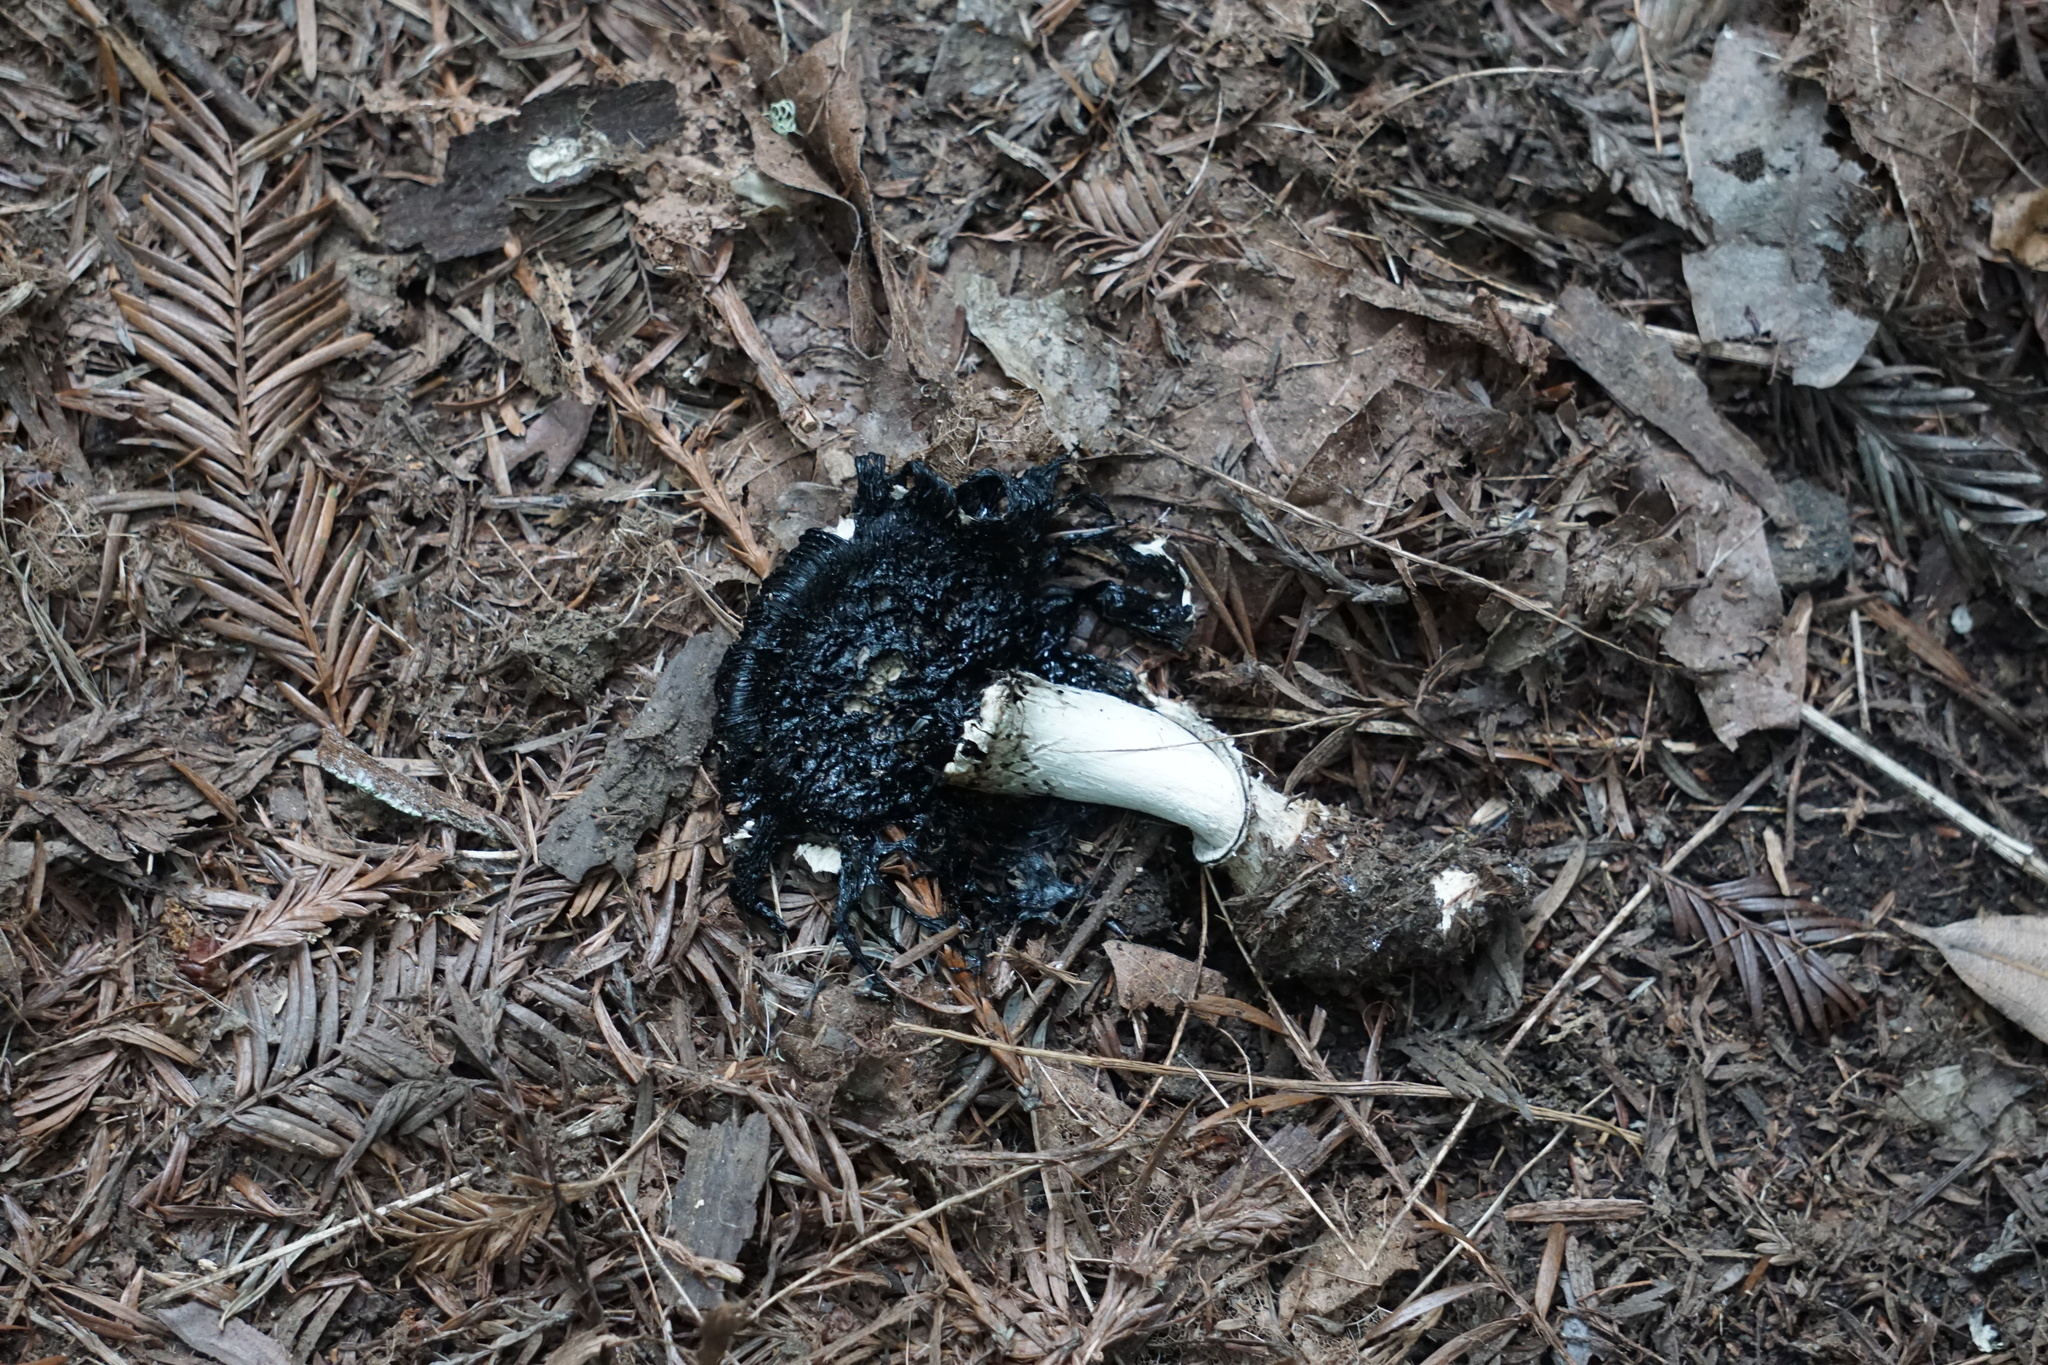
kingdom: Fungi
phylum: Basidiomycota
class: Agaricomycetes
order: Agaricales
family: Agaricaceae
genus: Coprinus
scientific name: Coprinus comatus
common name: Lawyer's wig
